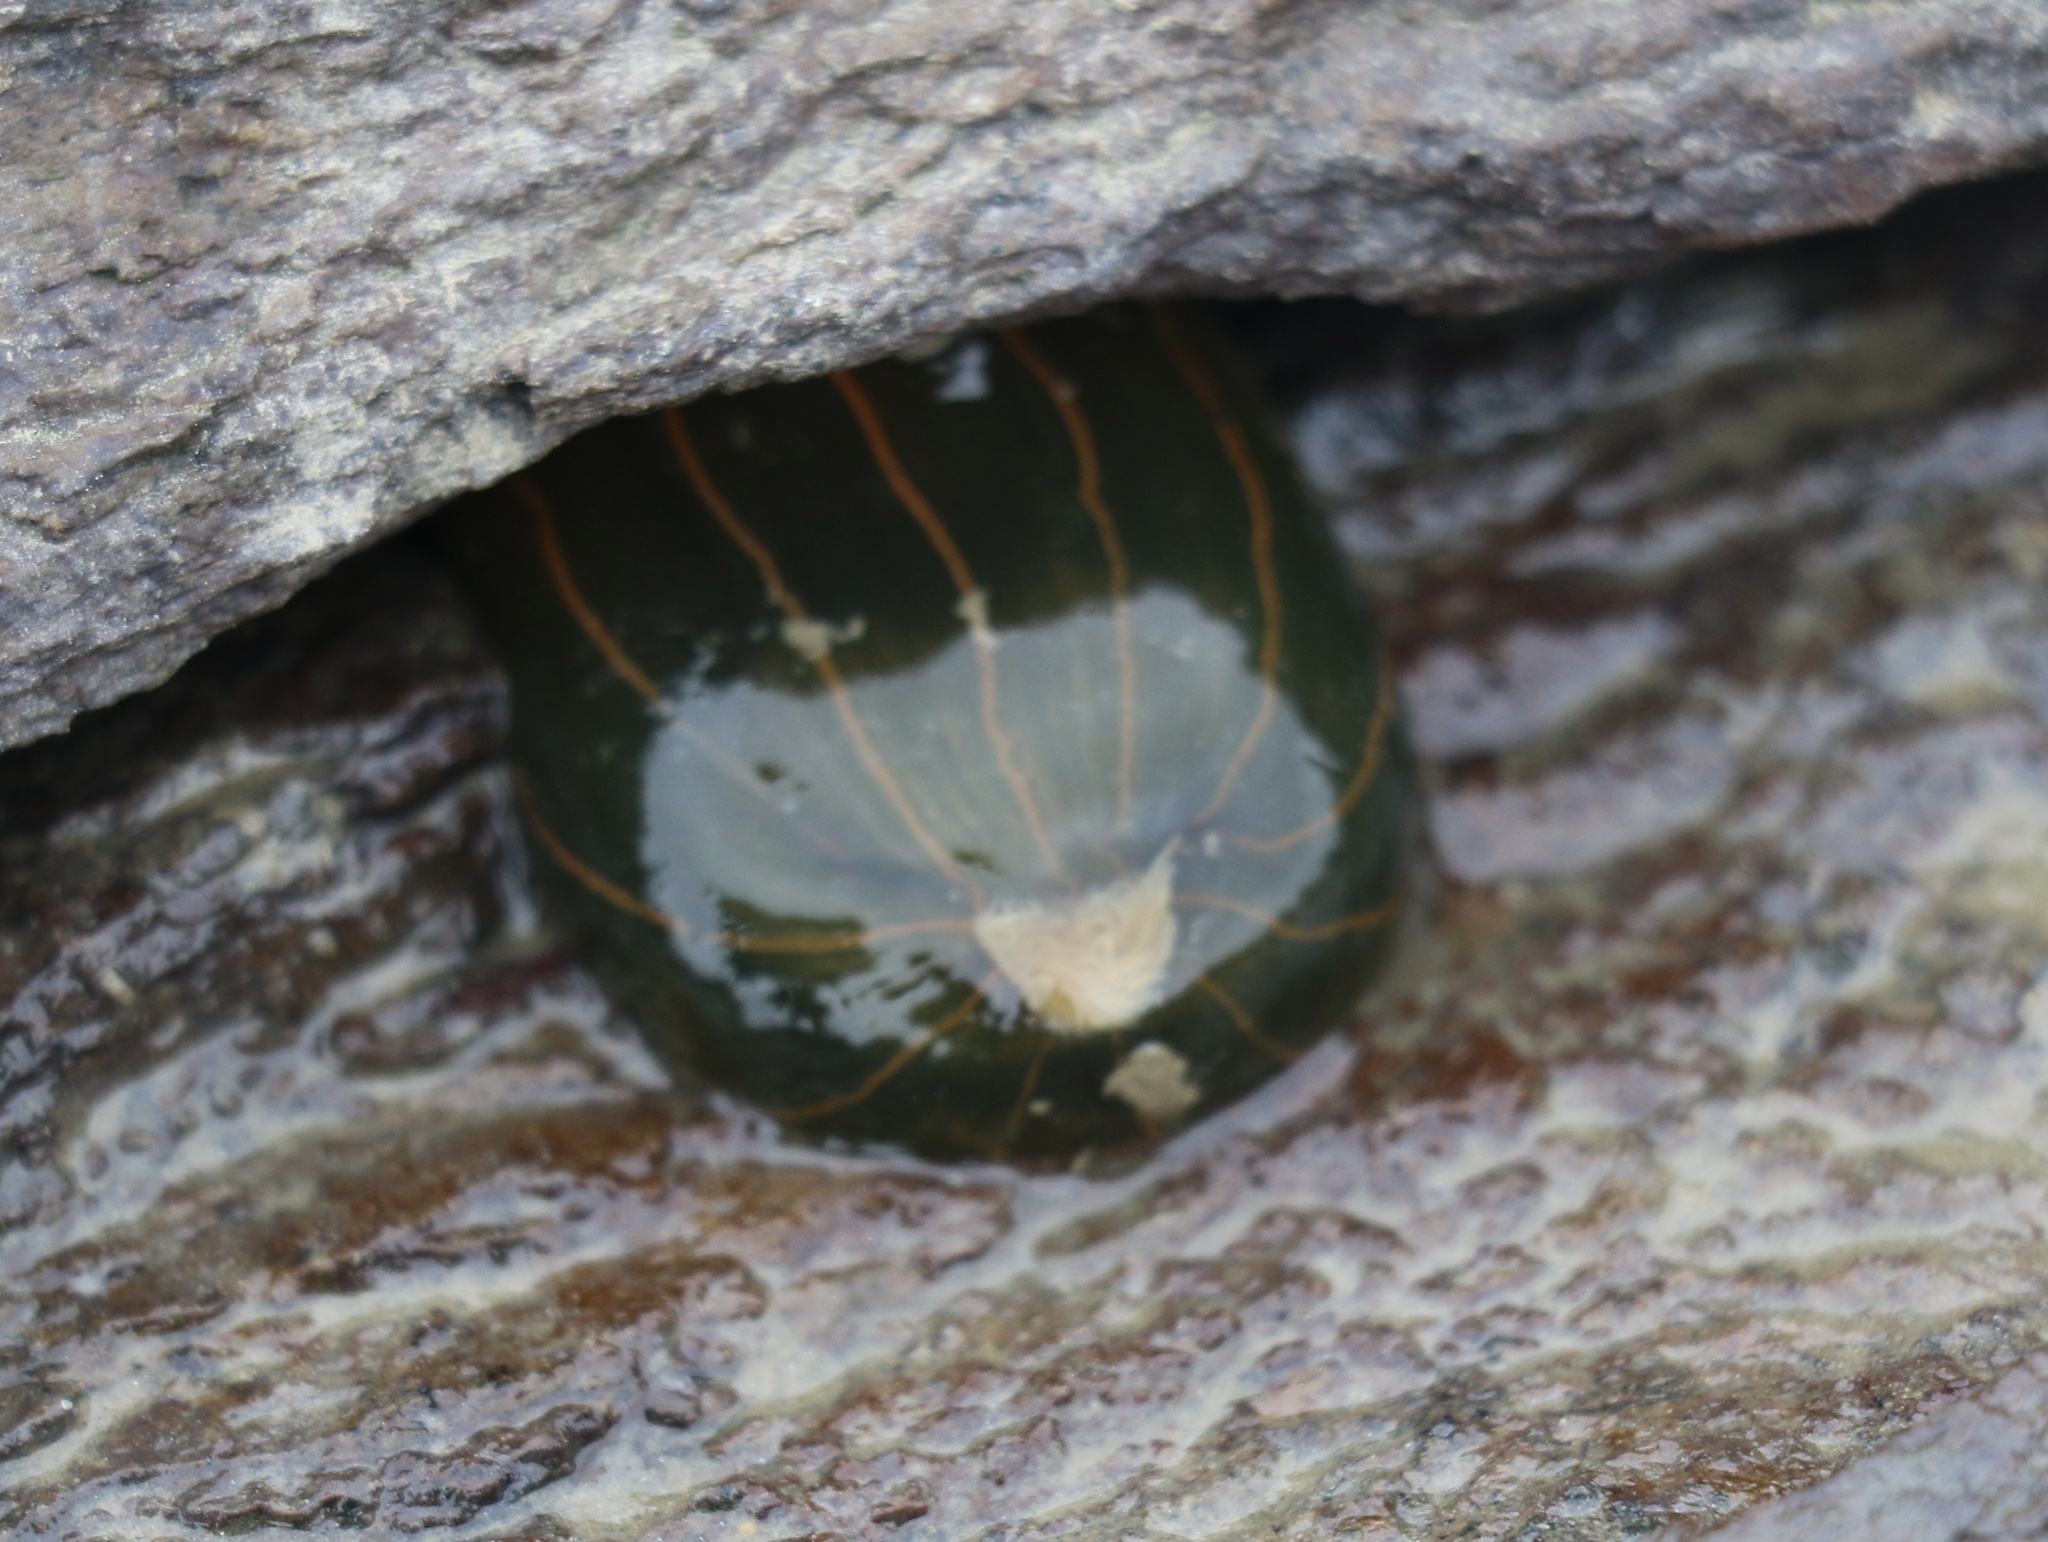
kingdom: Animalia
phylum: Cnidaria
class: Anthozoa
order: Actiniaria
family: Diadumenidae
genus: Diadumene
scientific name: Diadumene lineata
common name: Orange-striped anemone
